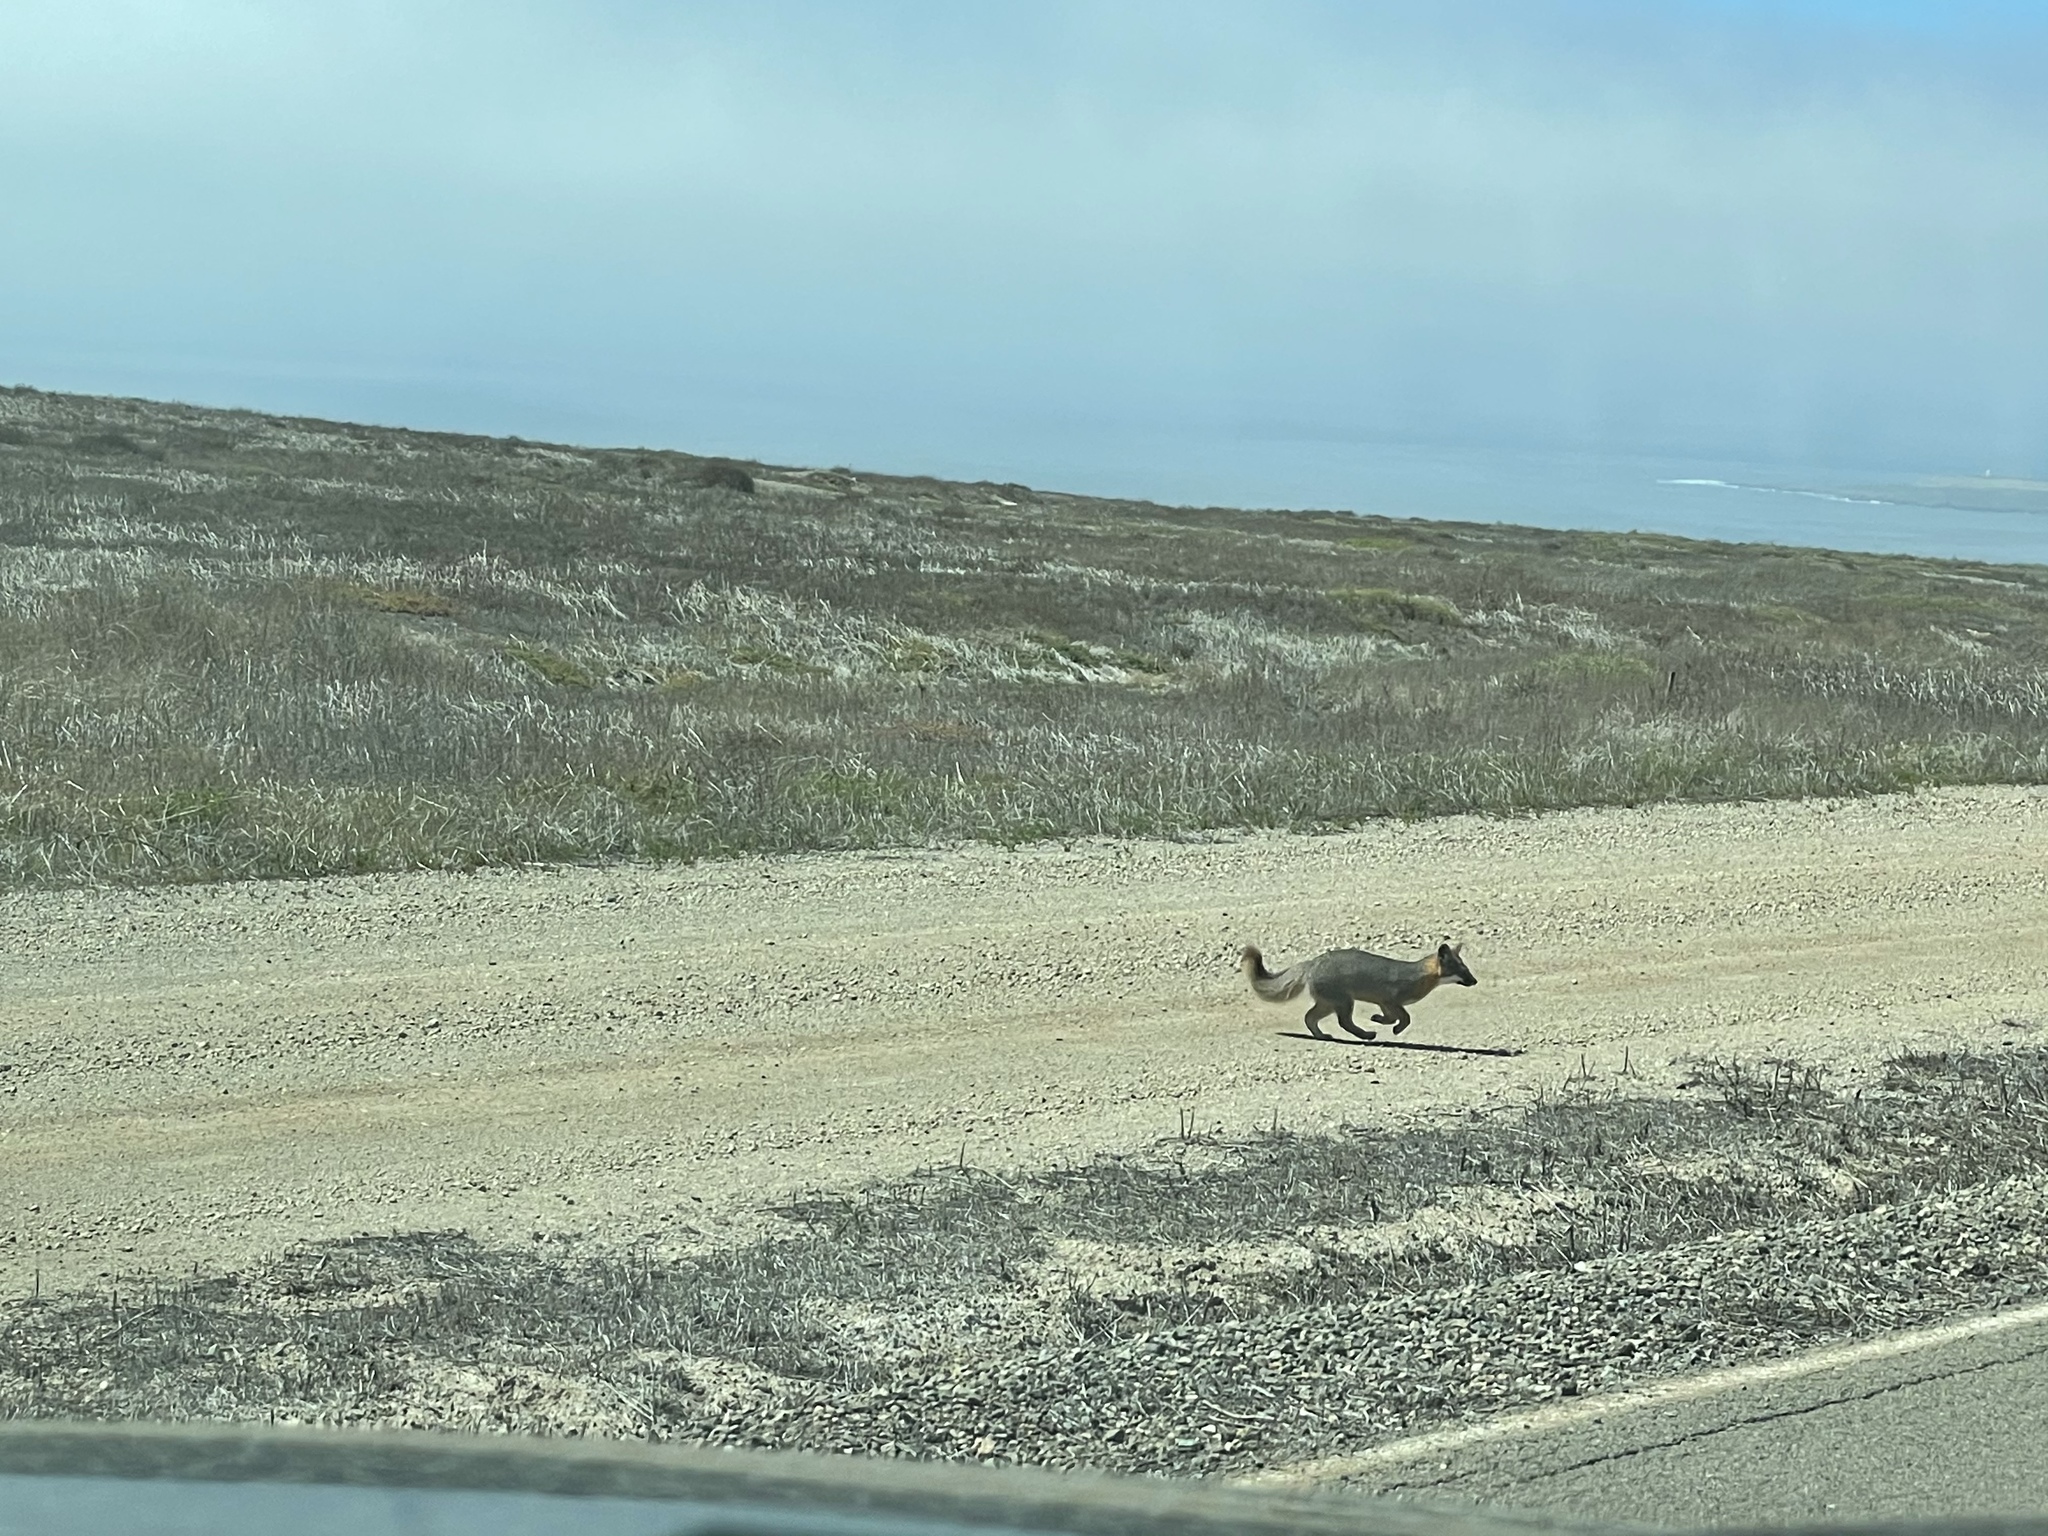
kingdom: Animalia
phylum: Chordata
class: Mammalia
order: Carnivora
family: Canidae
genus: Urocyon
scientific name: Urocyon littoralis
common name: Island gray fox
